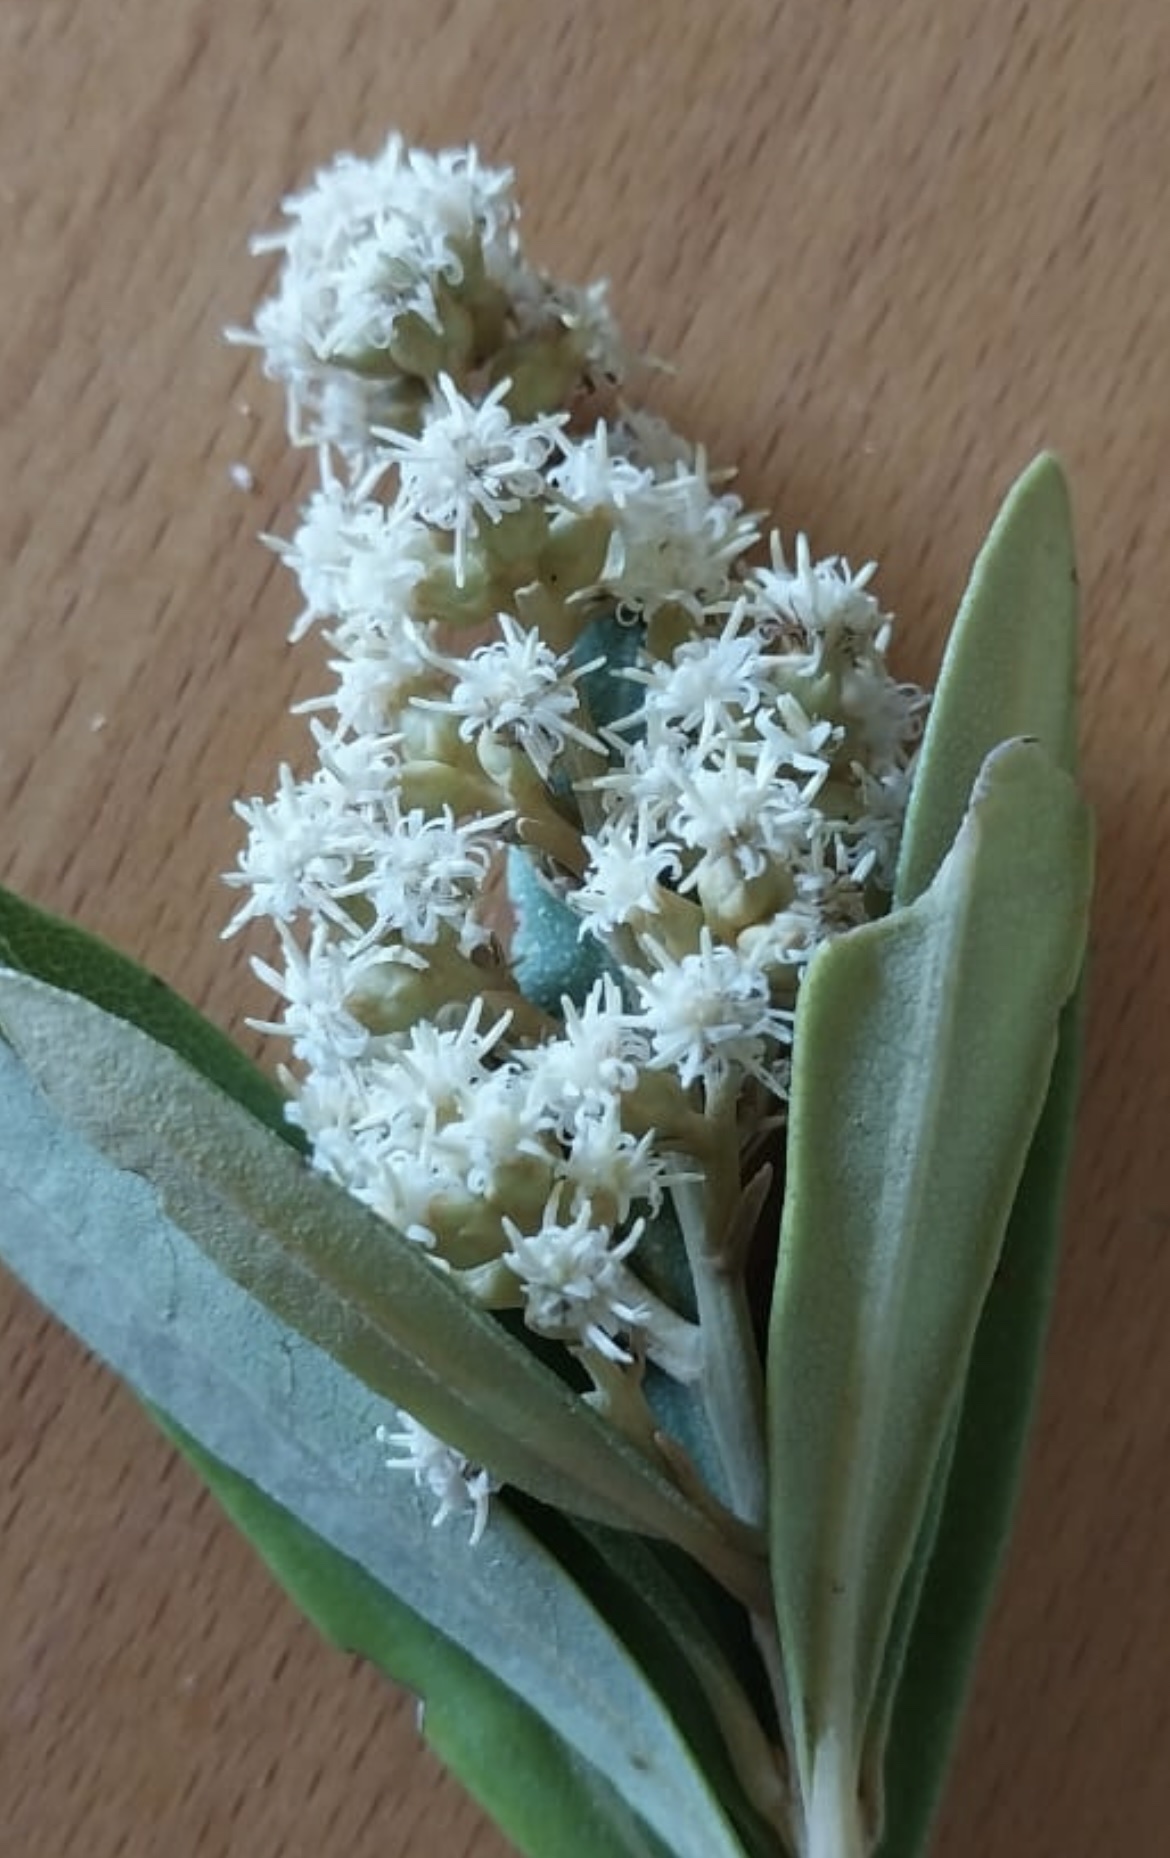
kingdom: Plantae
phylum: Tracheophyta
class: Magnoliopsida
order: Sapindales
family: Anacardiaceae
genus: Laurophyllus
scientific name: Laurophyllus capensis
